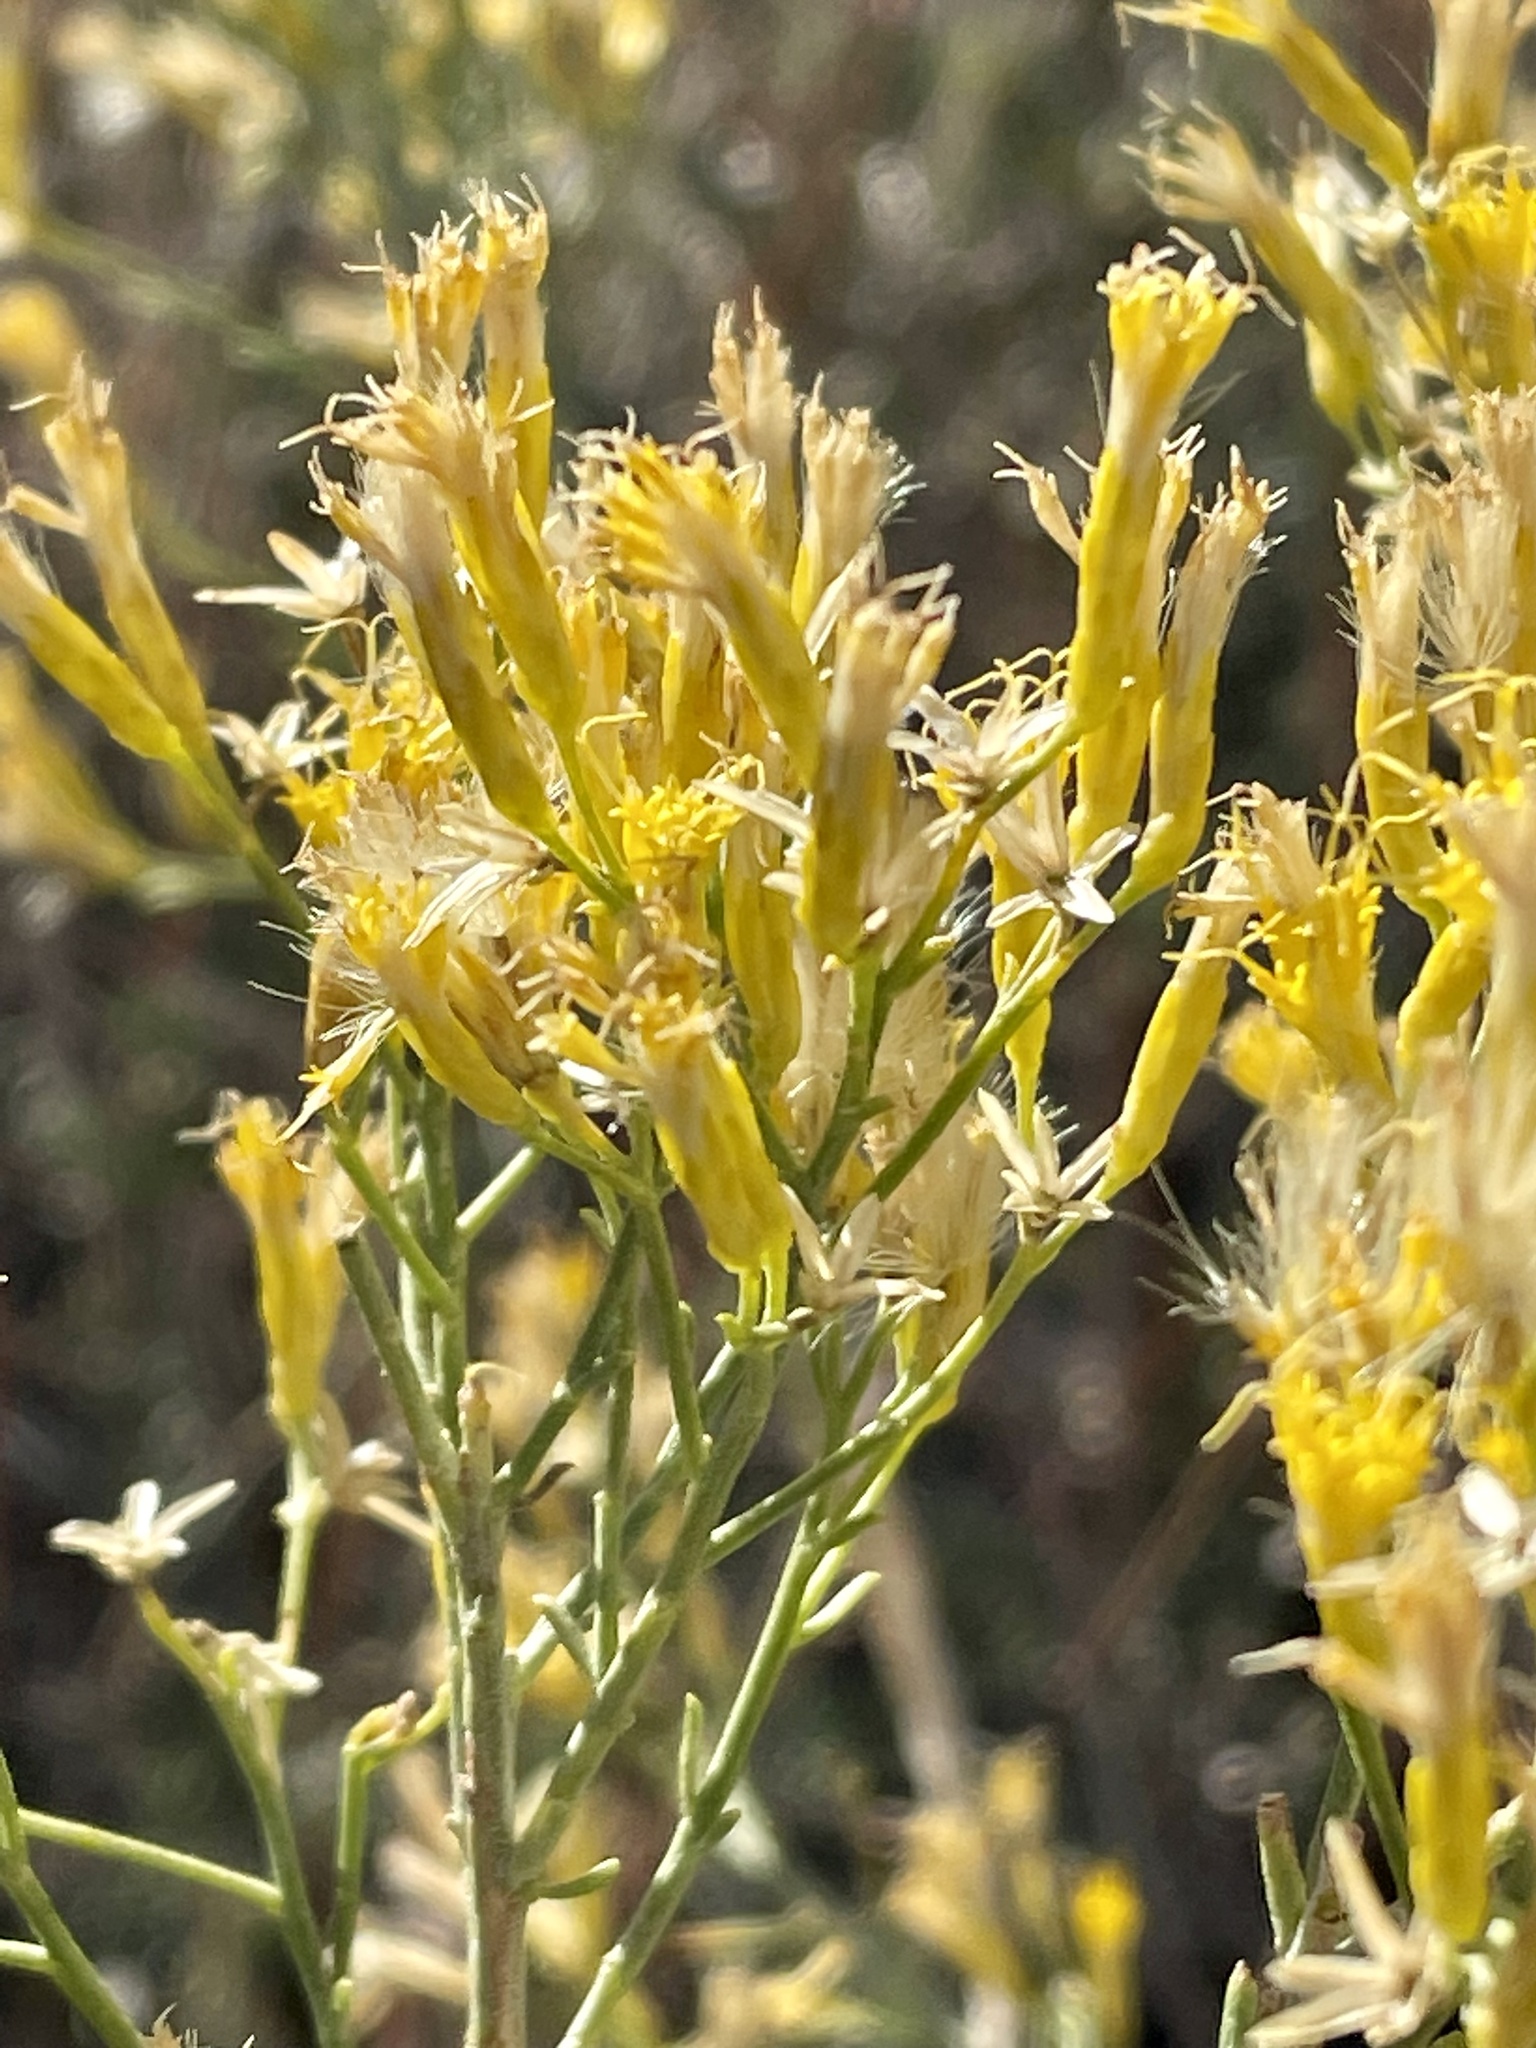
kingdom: Plantae
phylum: Tracheophyta
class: Magnoliopsida
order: Asterales
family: Asteraceae
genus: Ericameria
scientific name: Ericameria paniculata
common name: Punctate rabbitbrush
